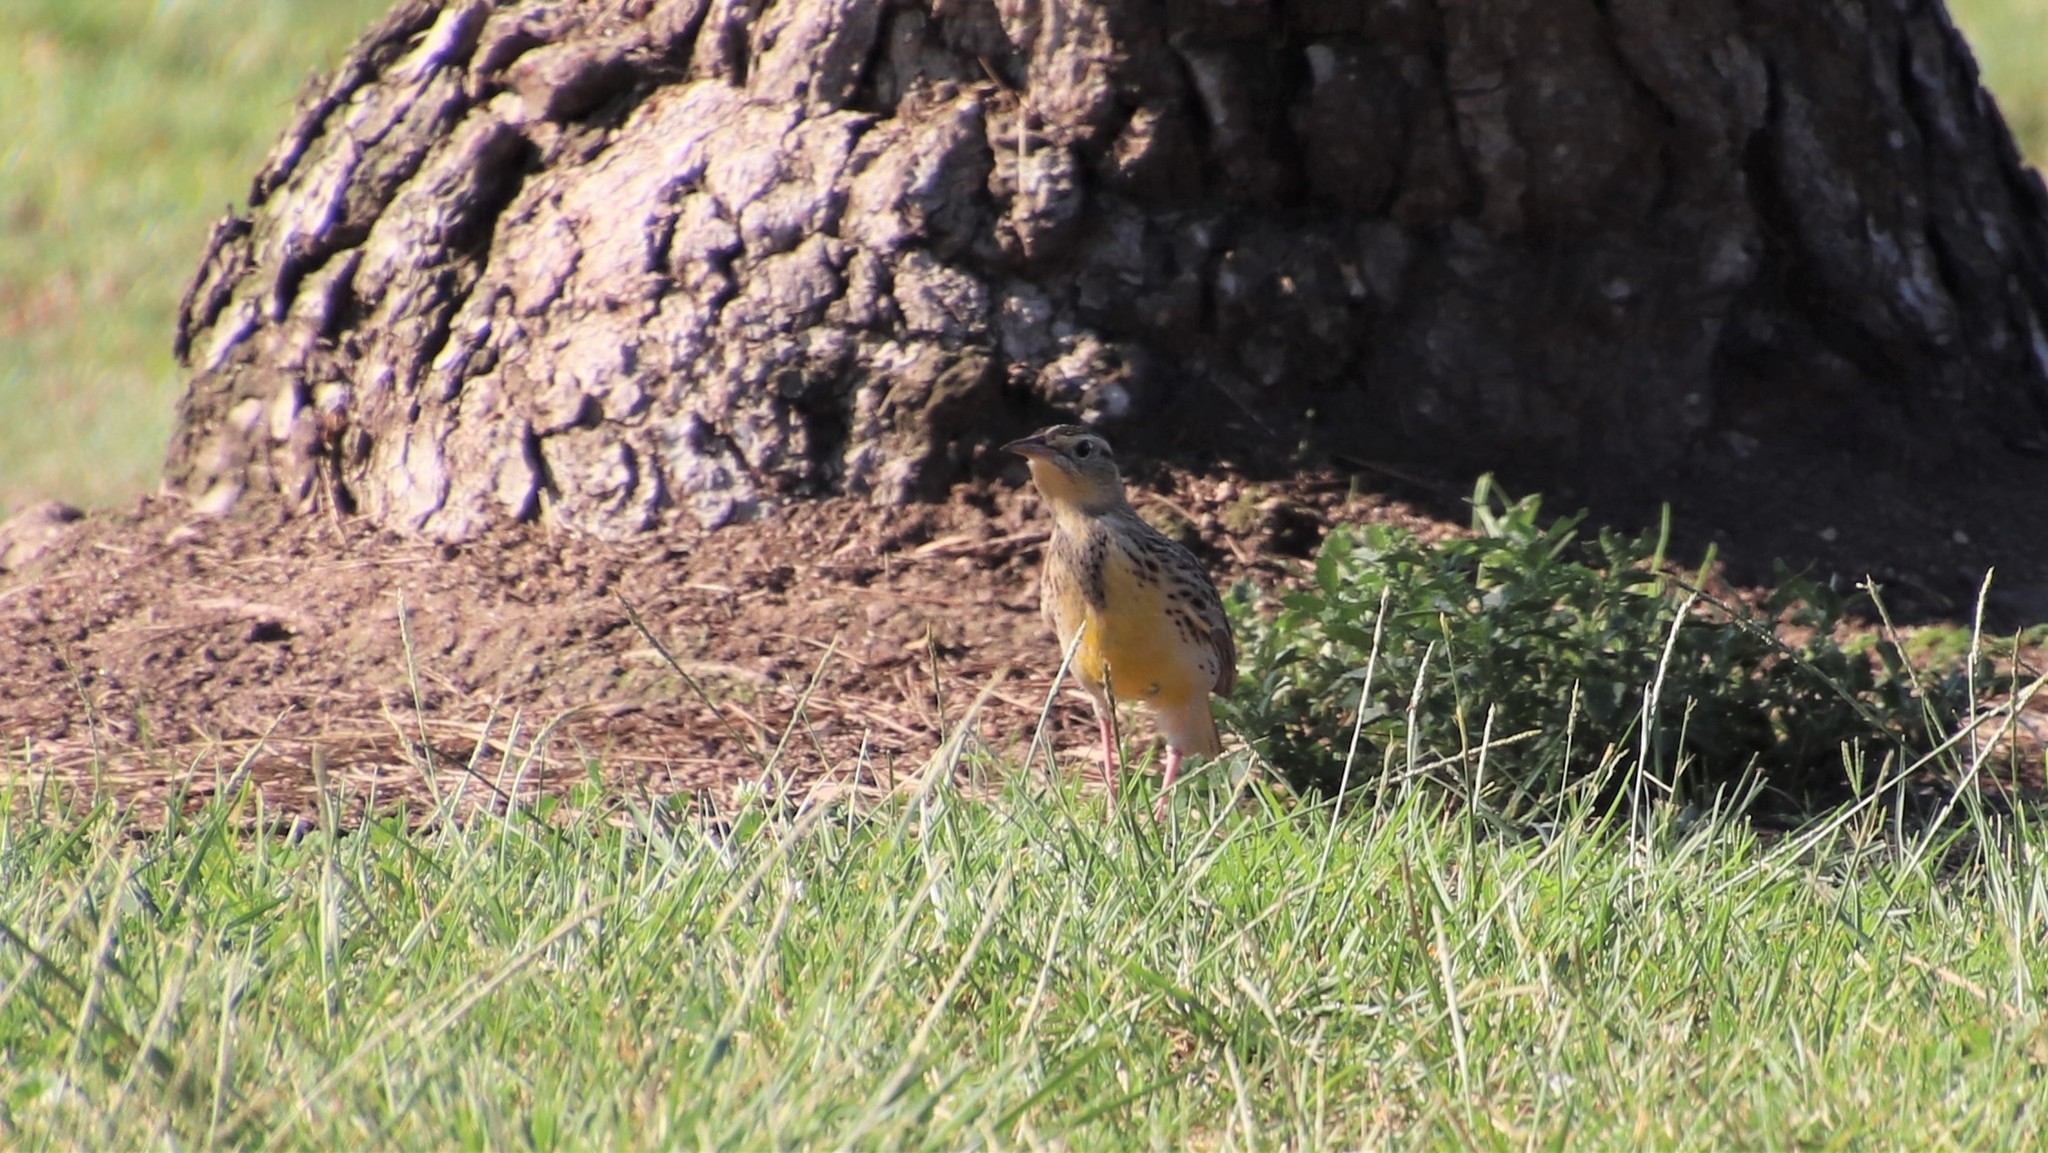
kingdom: Animalia
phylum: Chordata
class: Aves
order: Passeriformes
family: Icteridae
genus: Sturnella
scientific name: Sturnella neglecta
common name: Western meadowlark
